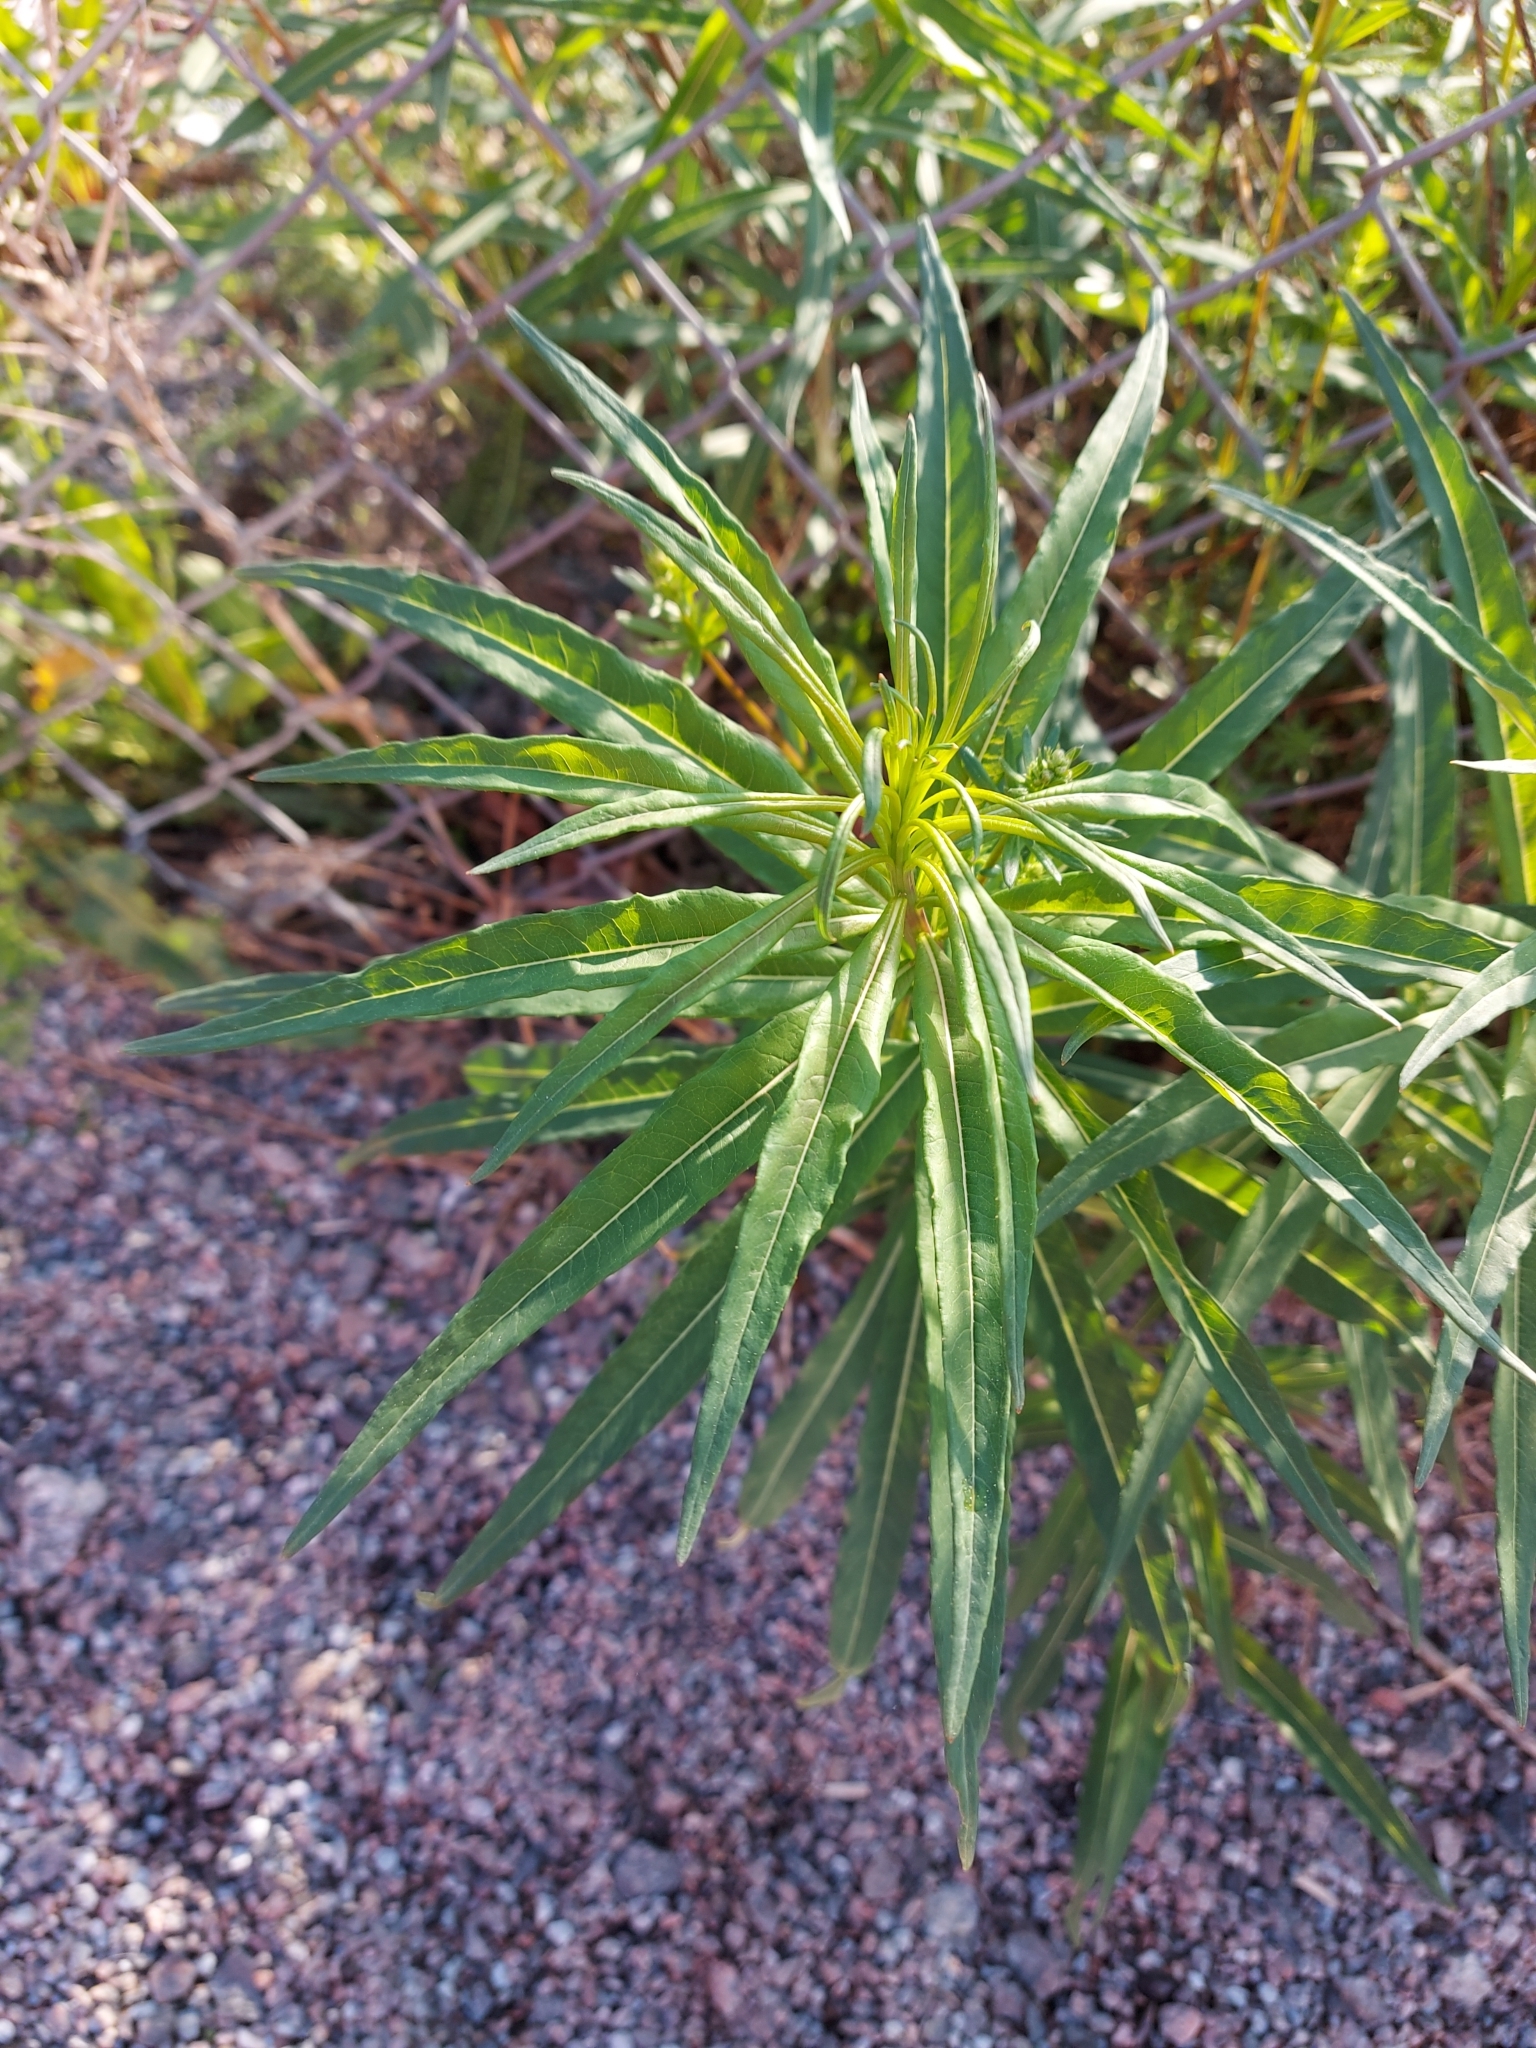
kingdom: Plantae
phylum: Tracheophyta
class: Magnoliopsida
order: Myrtales
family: Onagraceae
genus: Chamaenerion
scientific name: Chamaenerion angustifolium
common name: Fireweed
